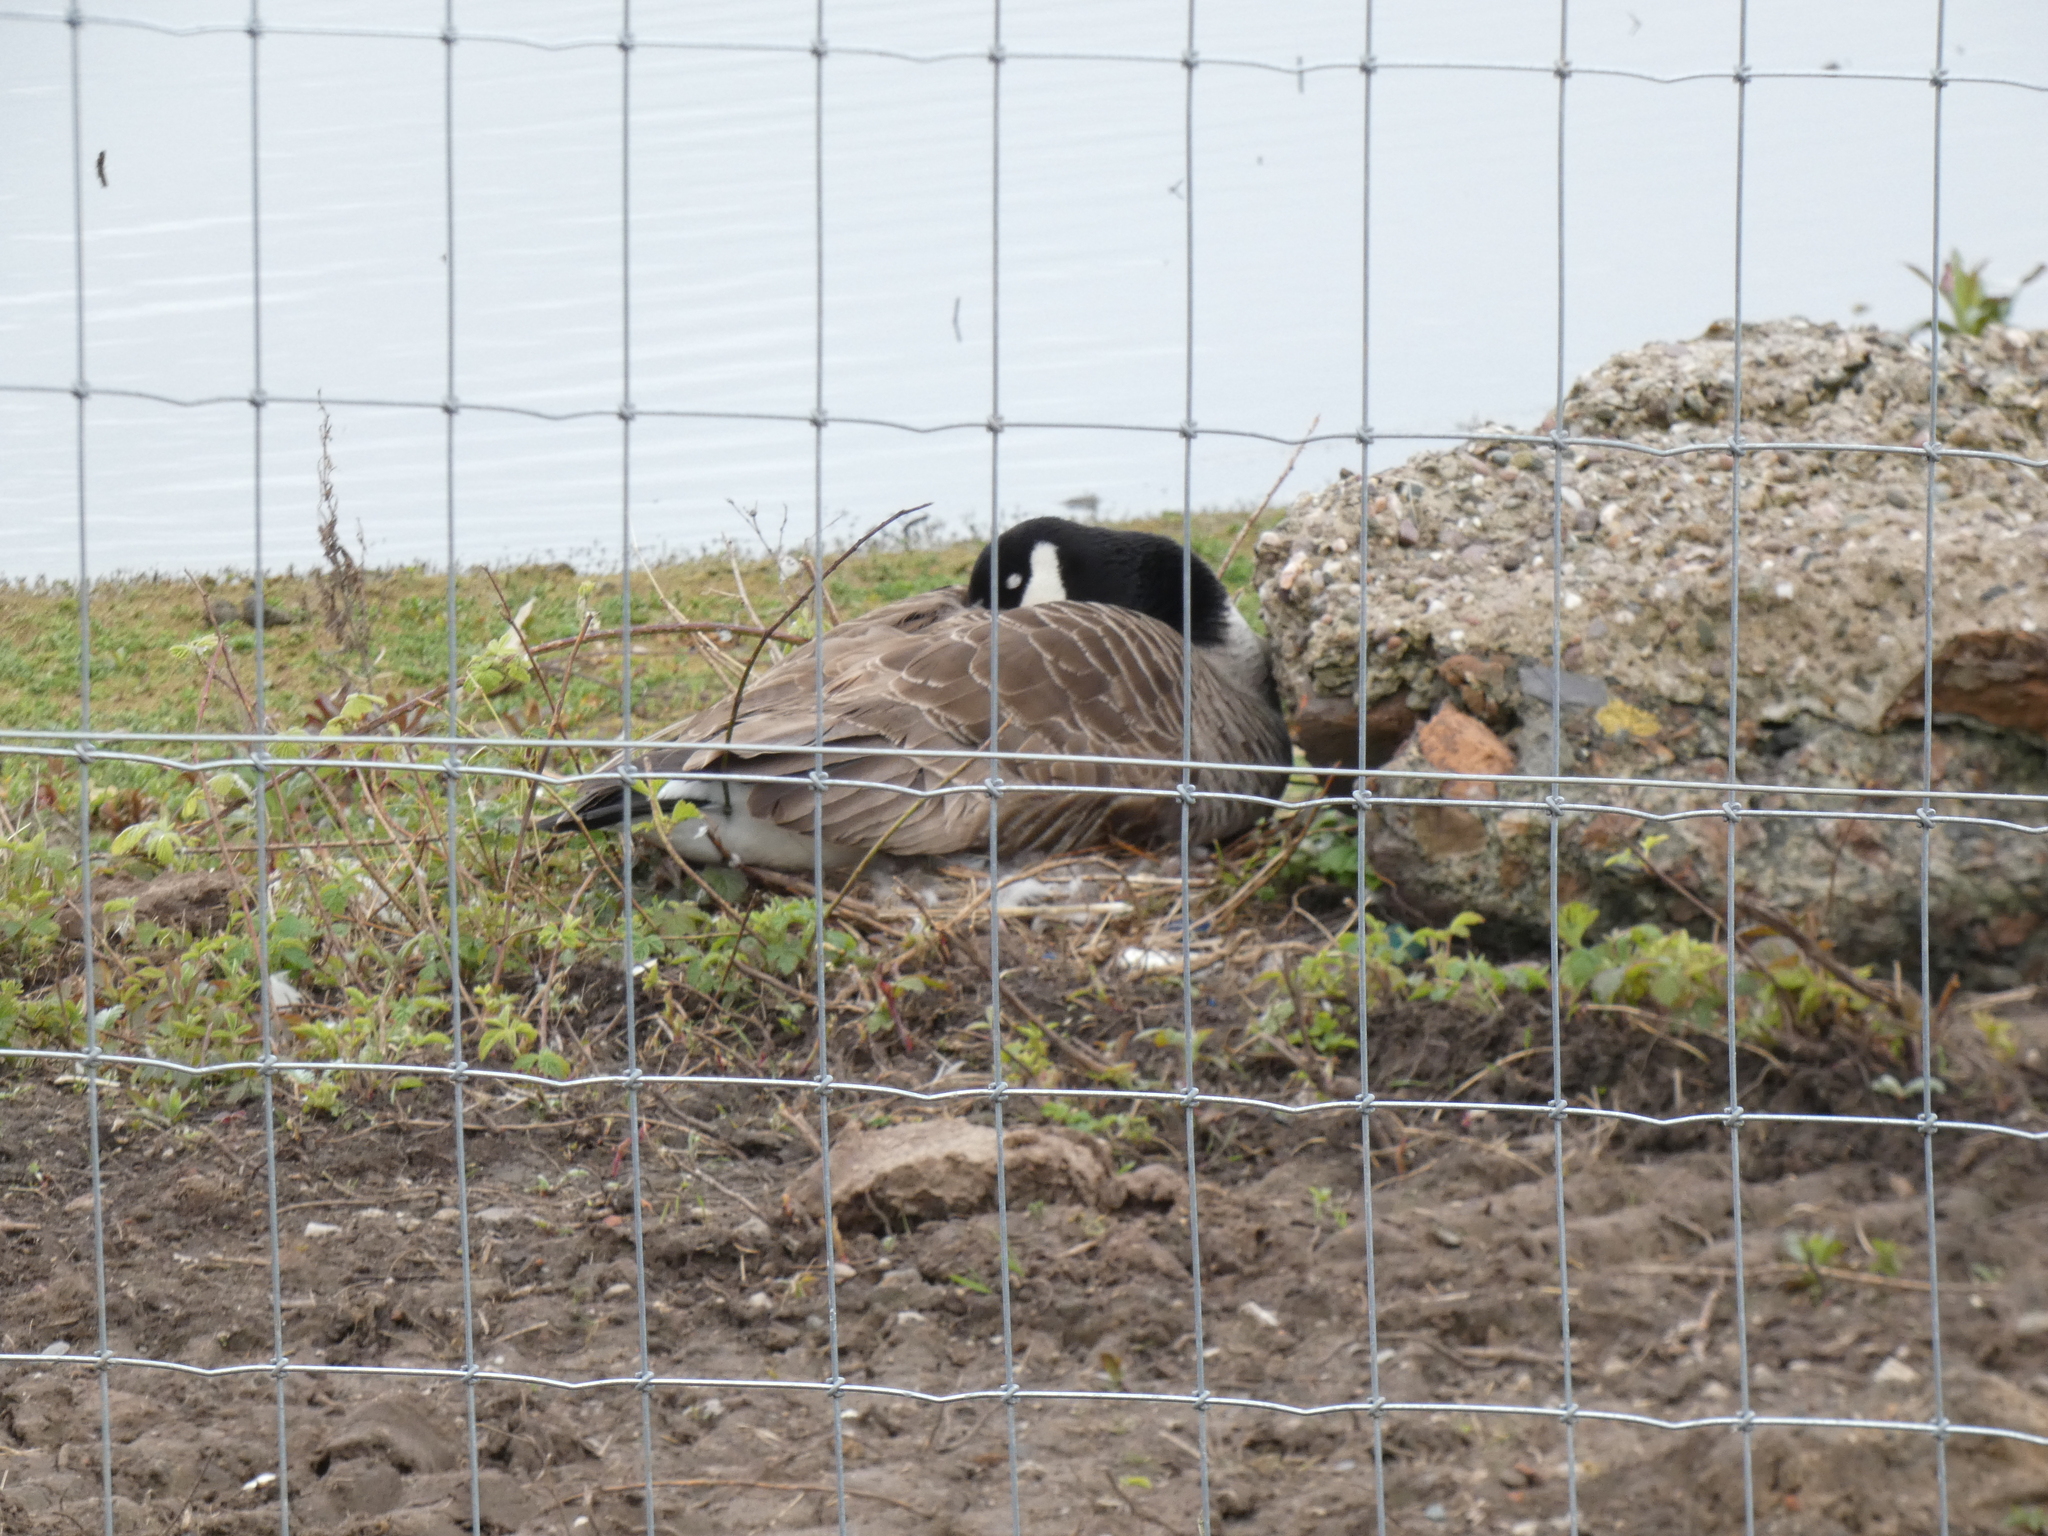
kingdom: Animalia
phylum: Chordata
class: Aves
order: Anseriformes
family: Anatidae
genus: Branta
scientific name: Branta canadensis
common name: Canada goose
